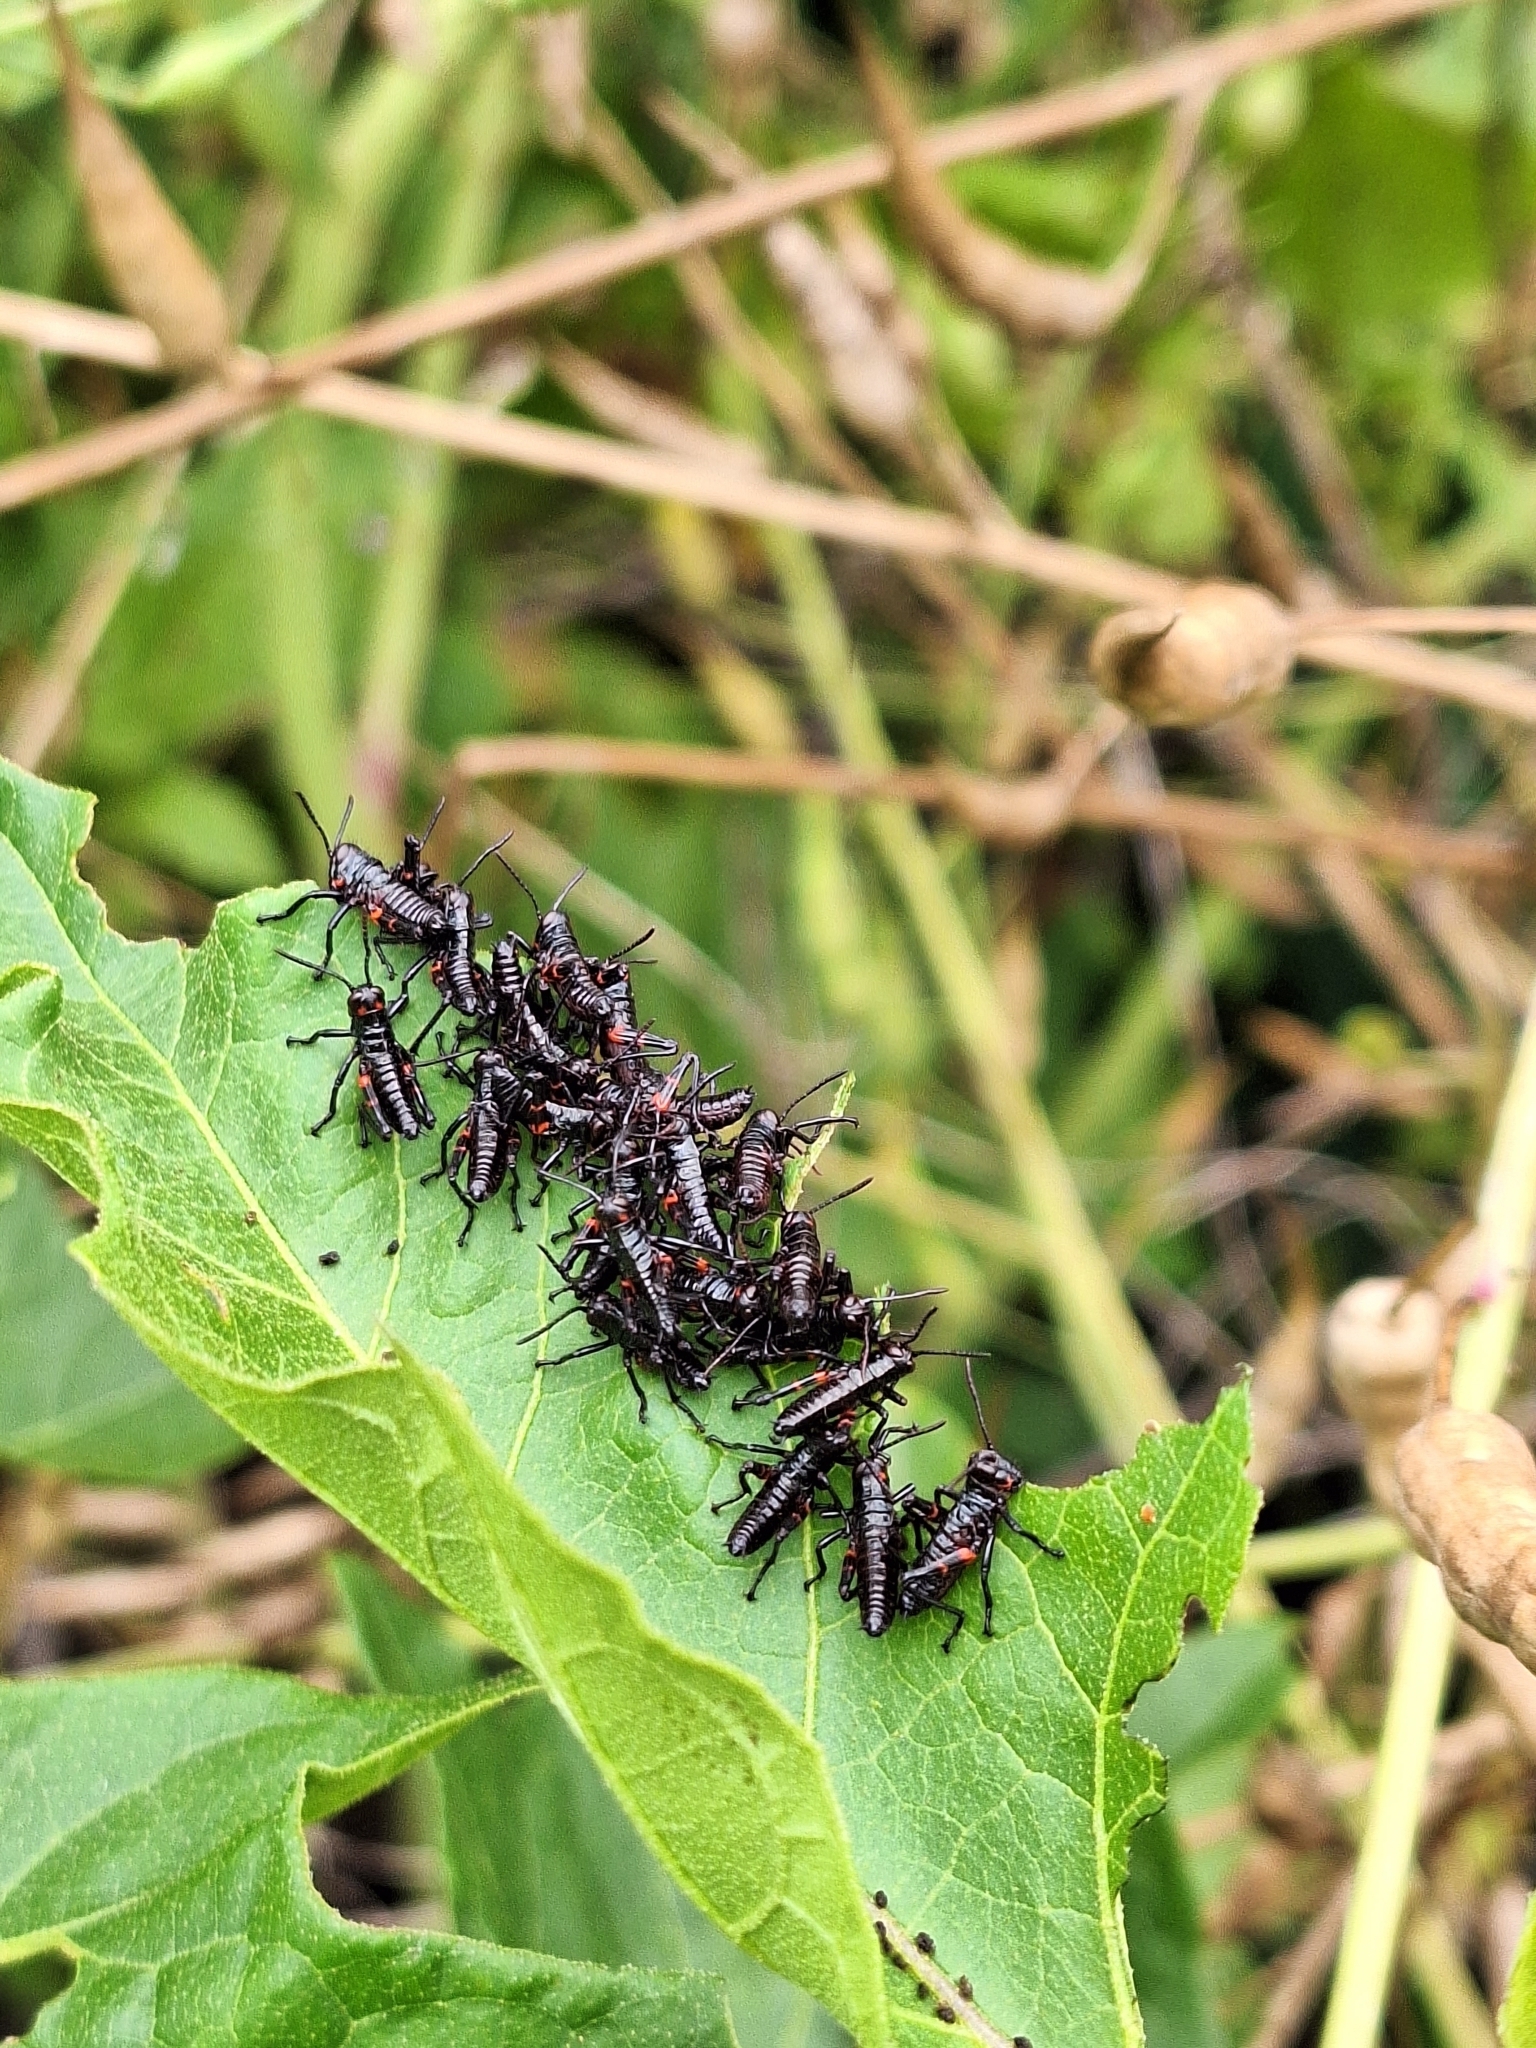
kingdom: Animalia
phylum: Arthropoda
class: Insecta
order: Orthoptera
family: Romaleidae
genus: Chromacris
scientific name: Chromacris speciosa
